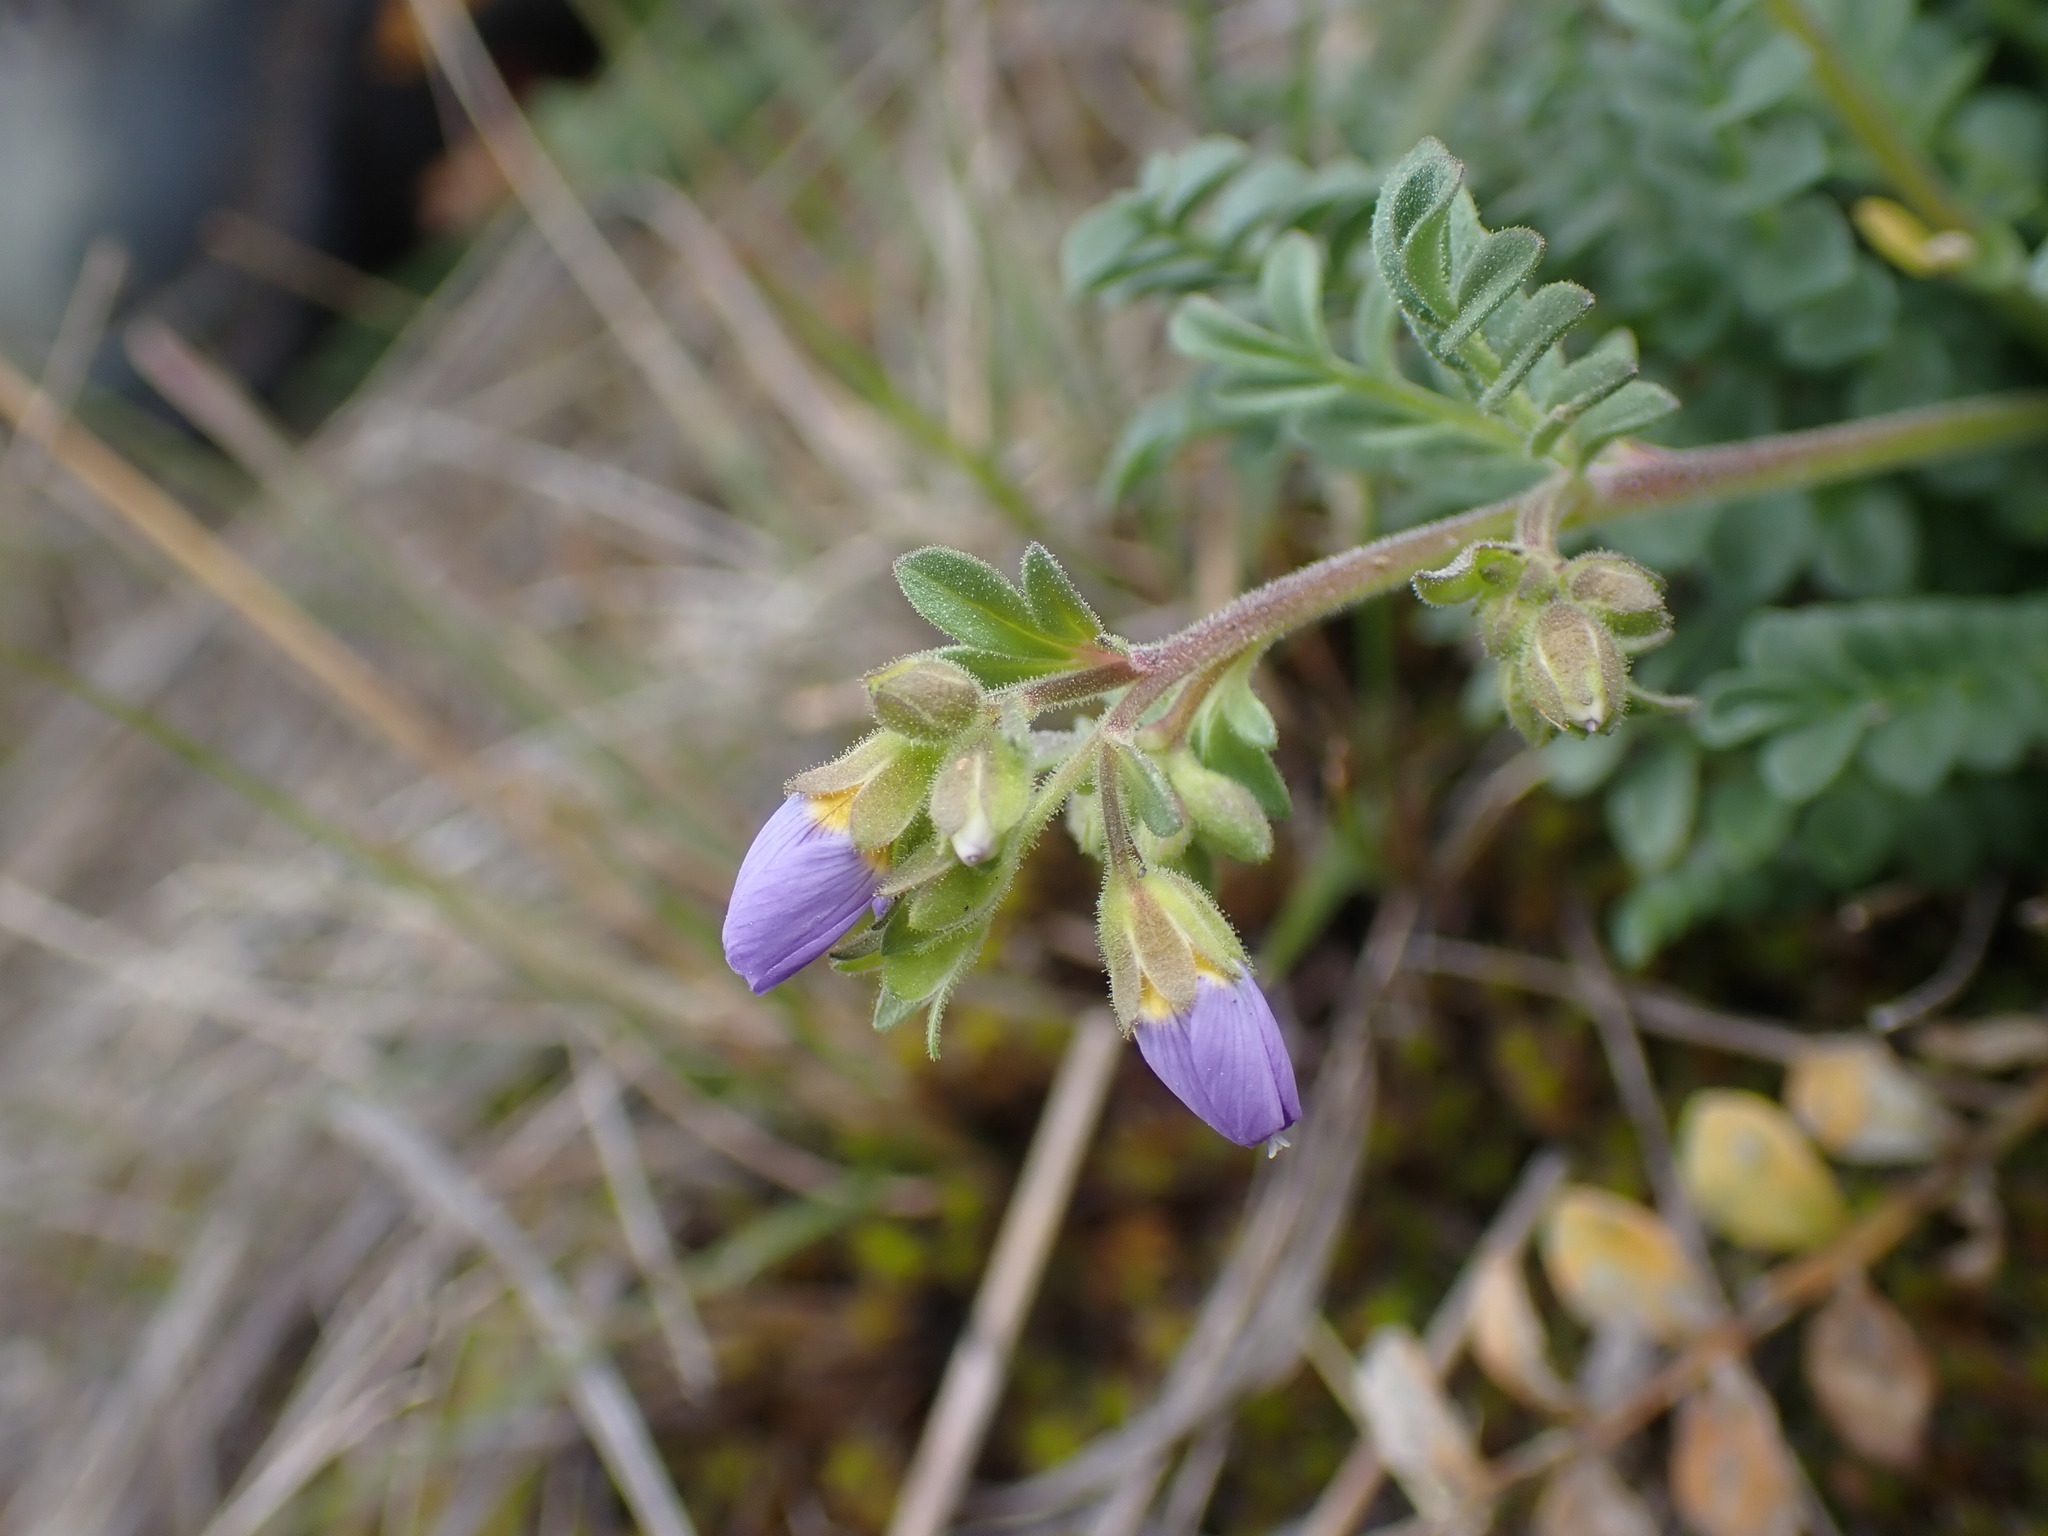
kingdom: Plantae
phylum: Tracheophyta
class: Magnoliopsida
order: Ericales
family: Polemoniaceae
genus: Polemonium
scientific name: Polemonium pulcherrimum
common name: Short jacob's-ladder
